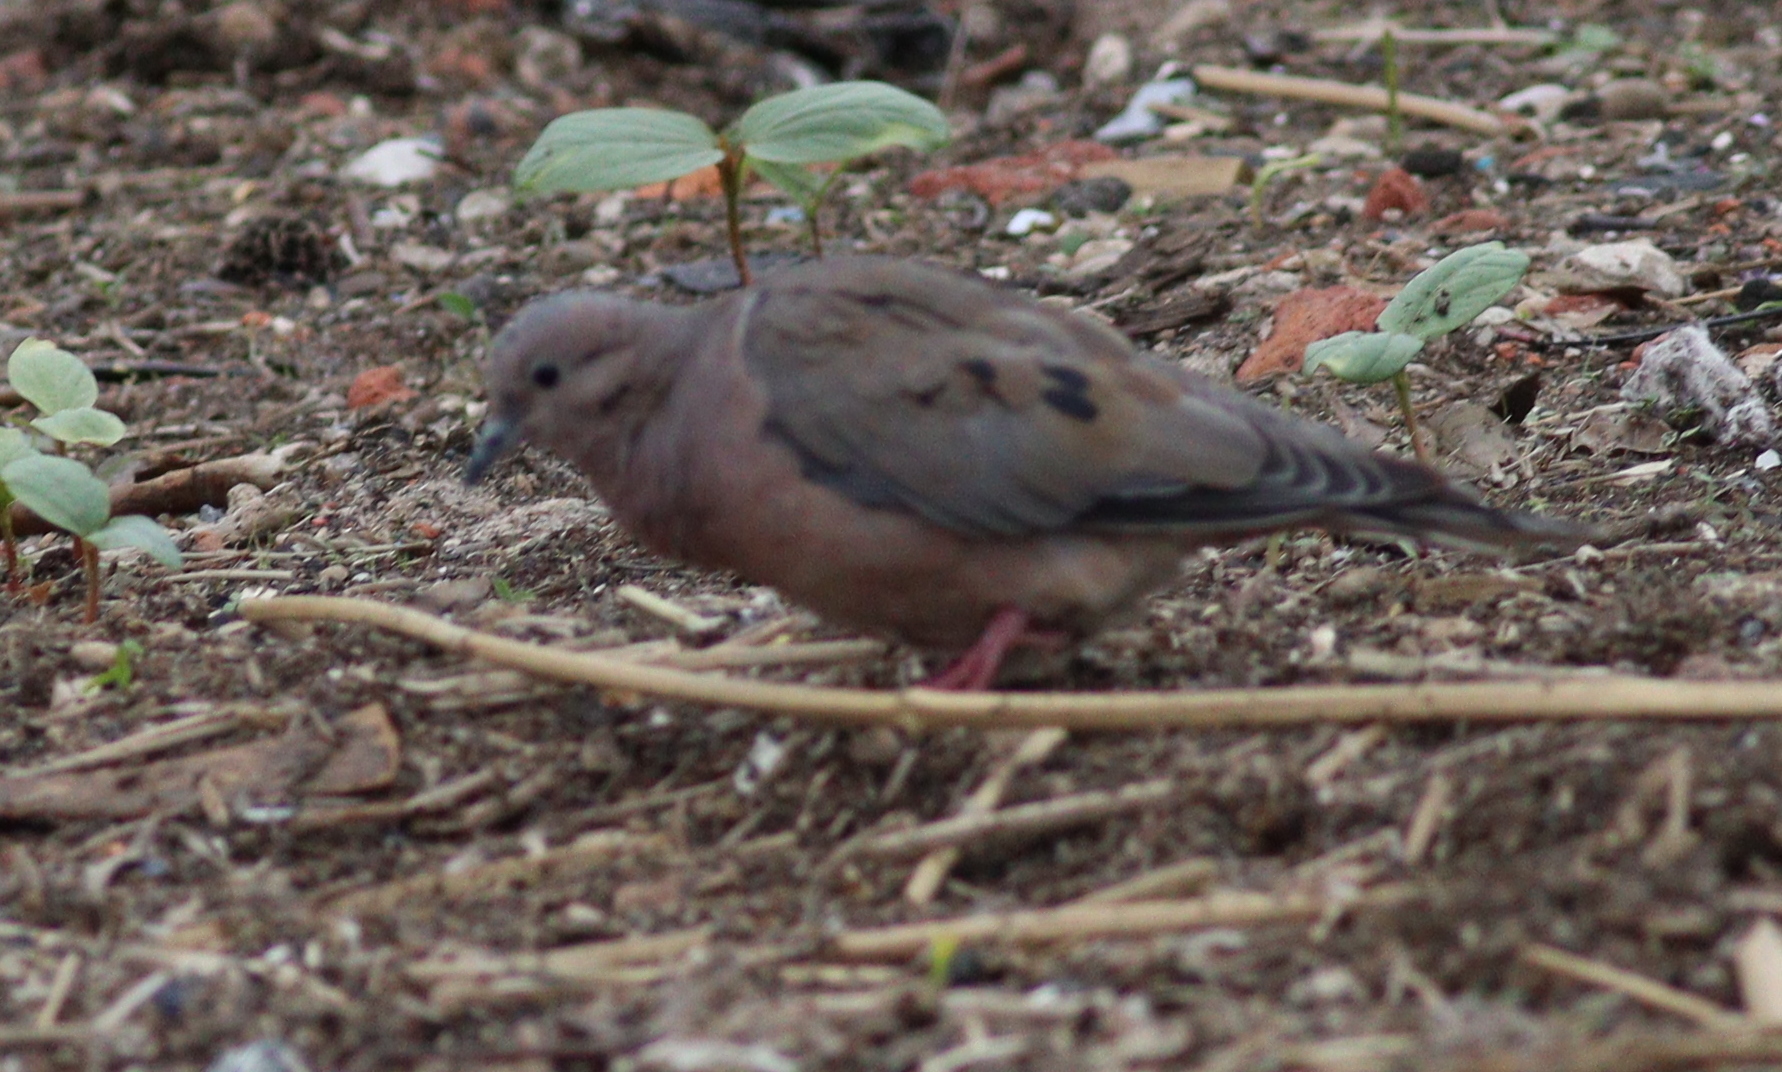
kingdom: Animalia
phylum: Chordata
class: Aves
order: Columbiformes
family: Columbidae
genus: Zenaida
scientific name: Zenaida auriculata
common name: Eared dove
